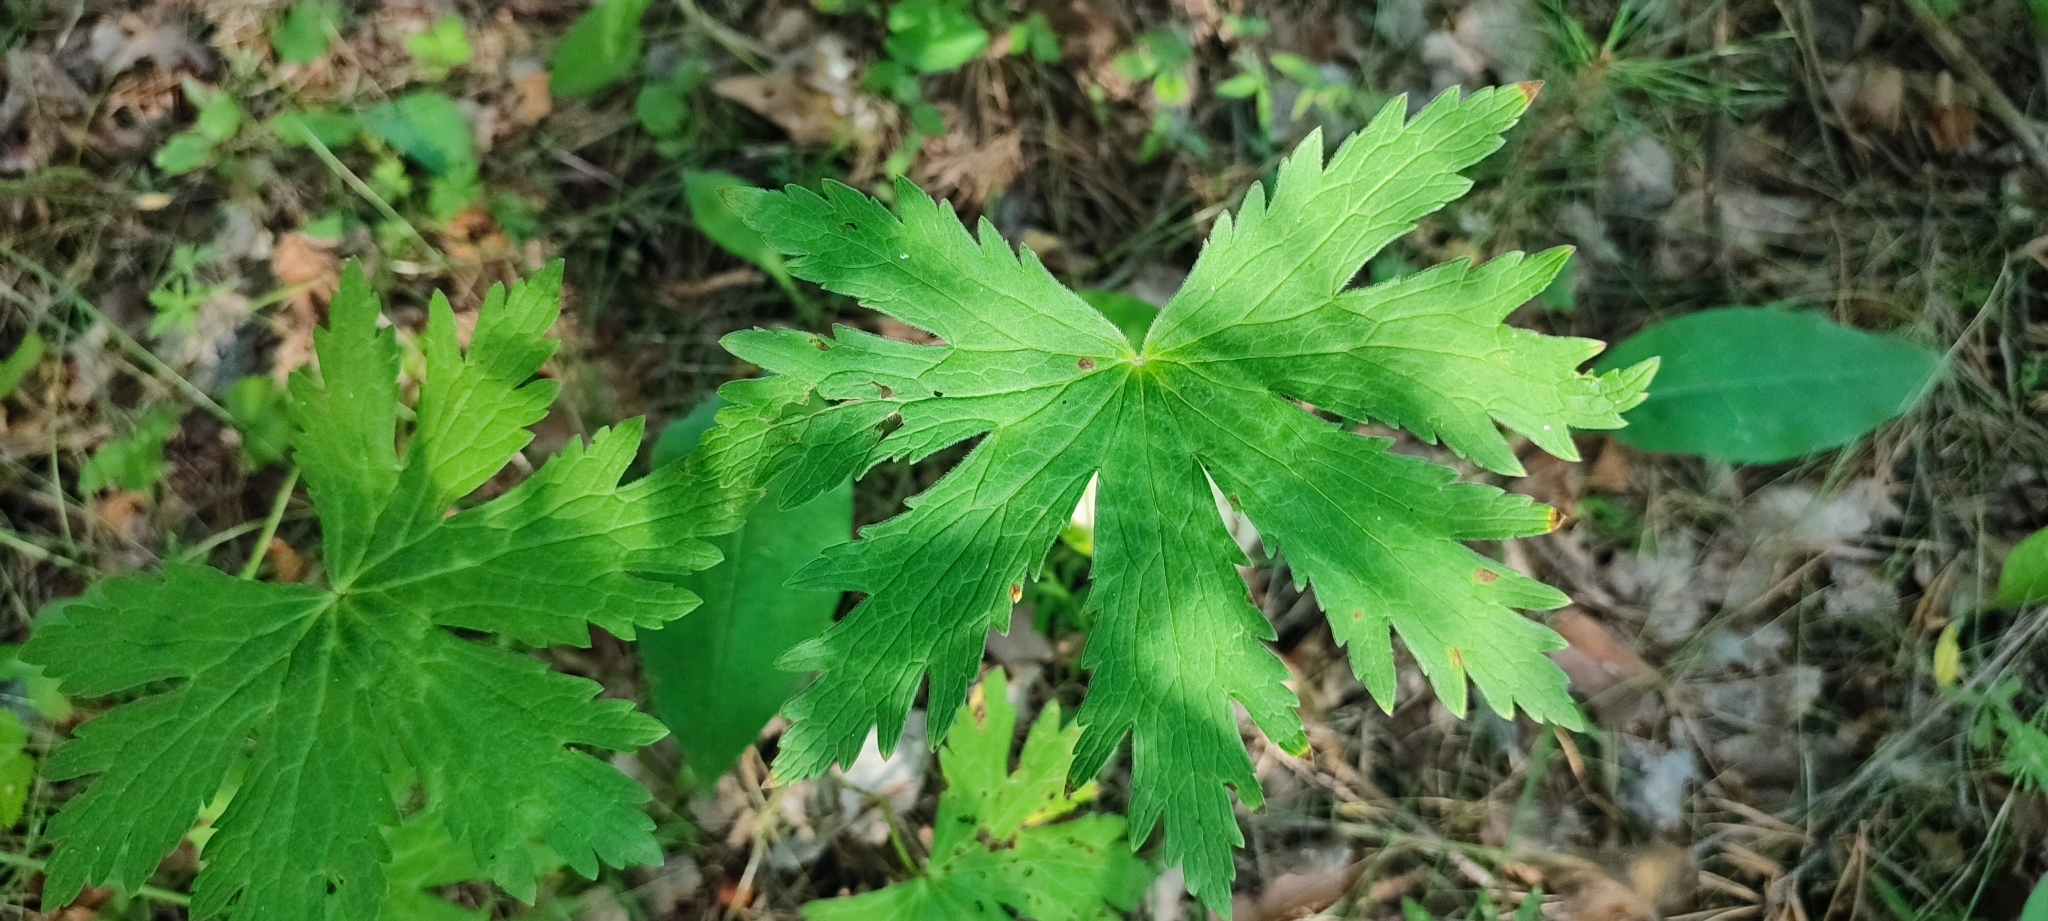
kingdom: Plantae
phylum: Tracheophyta
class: Magnoliopsida
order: Geraniales
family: Geraniaceae
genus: Geranium
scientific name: Geranium sylvaticum
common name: Wood crane's-bill
